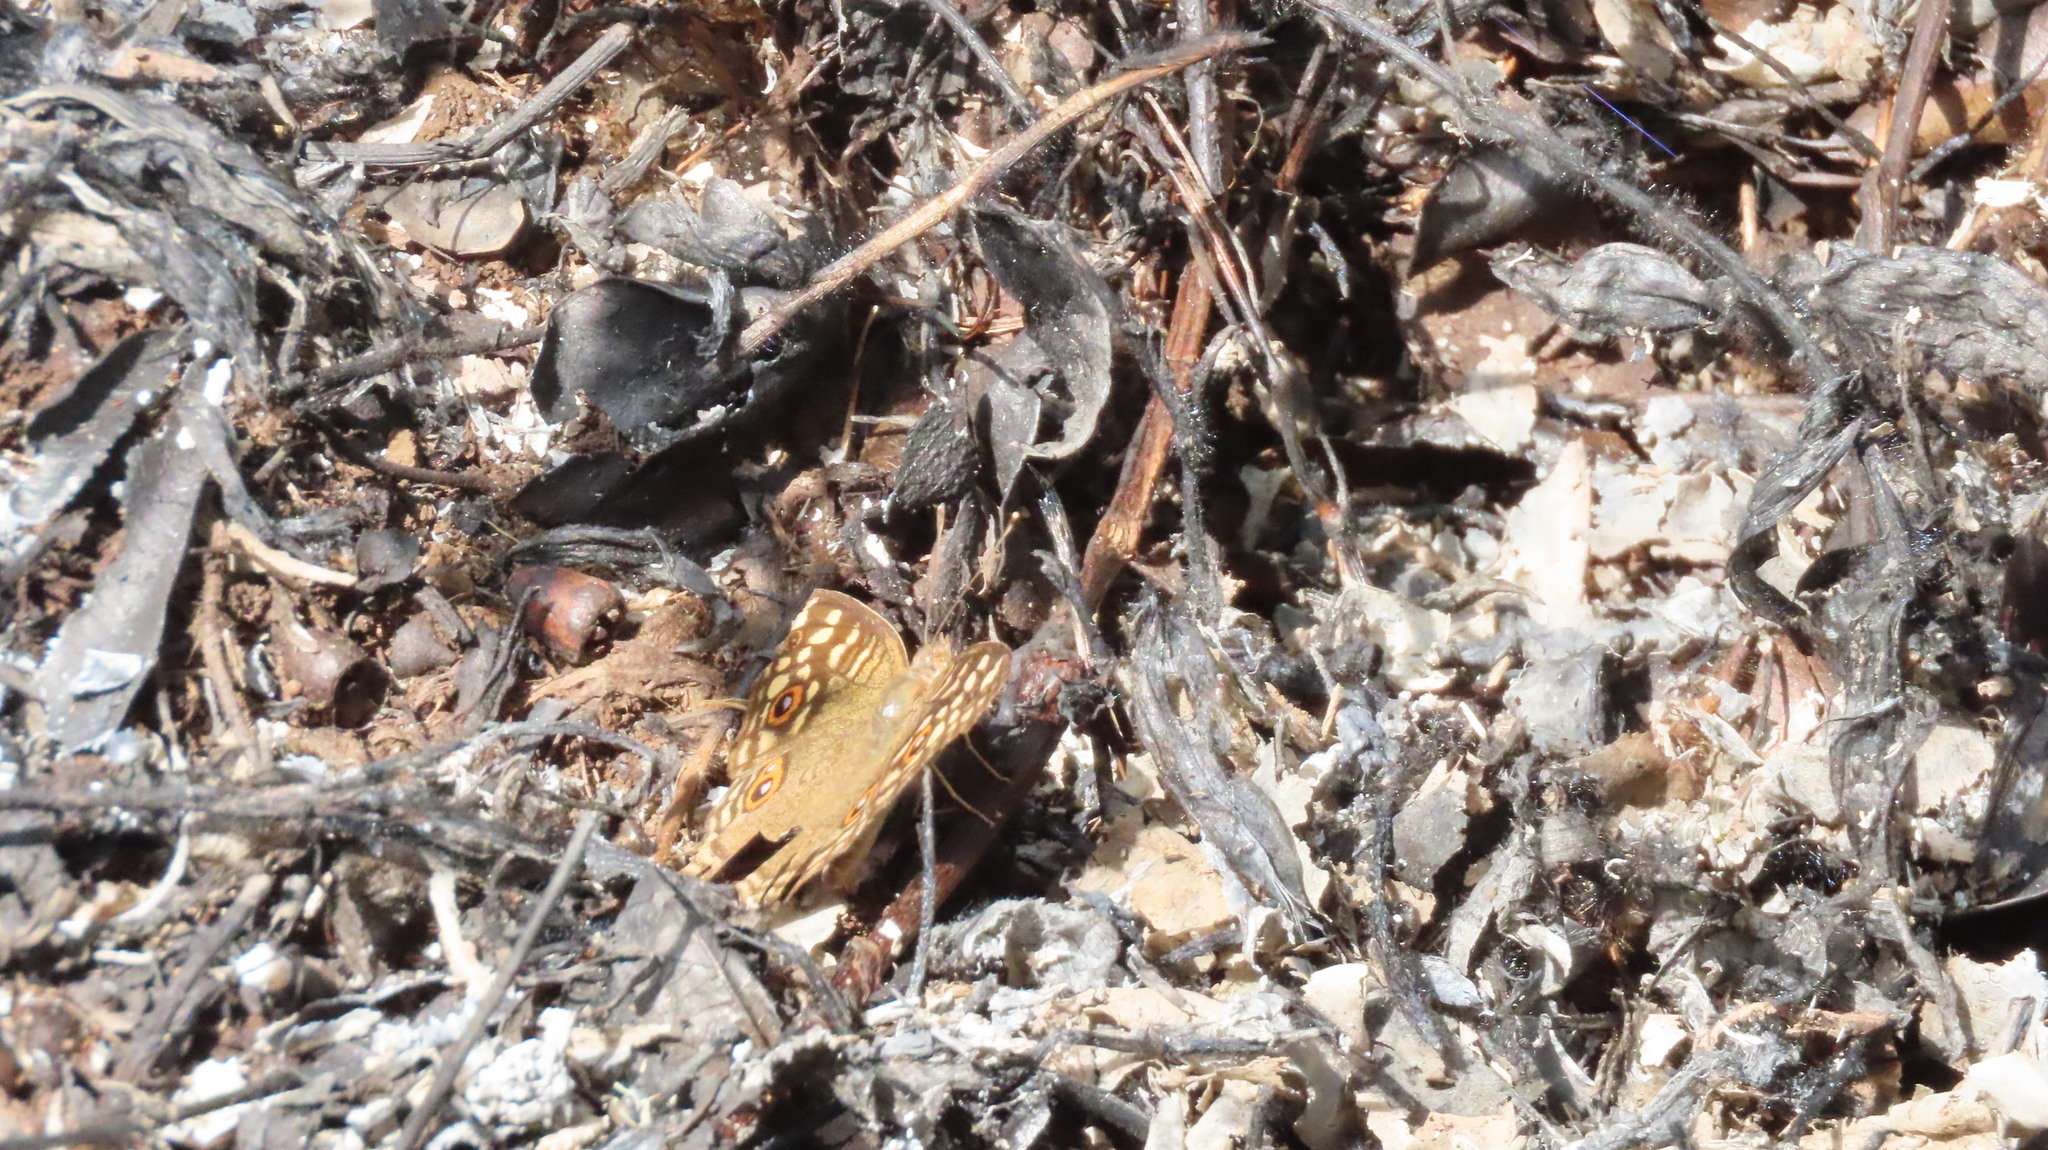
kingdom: Animalia
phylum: Arthropoda
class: Insecta
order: Lepidoptera
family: Nymphalidae
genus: Junonia
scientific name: Junonia lemonias
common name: Lemon pansy
